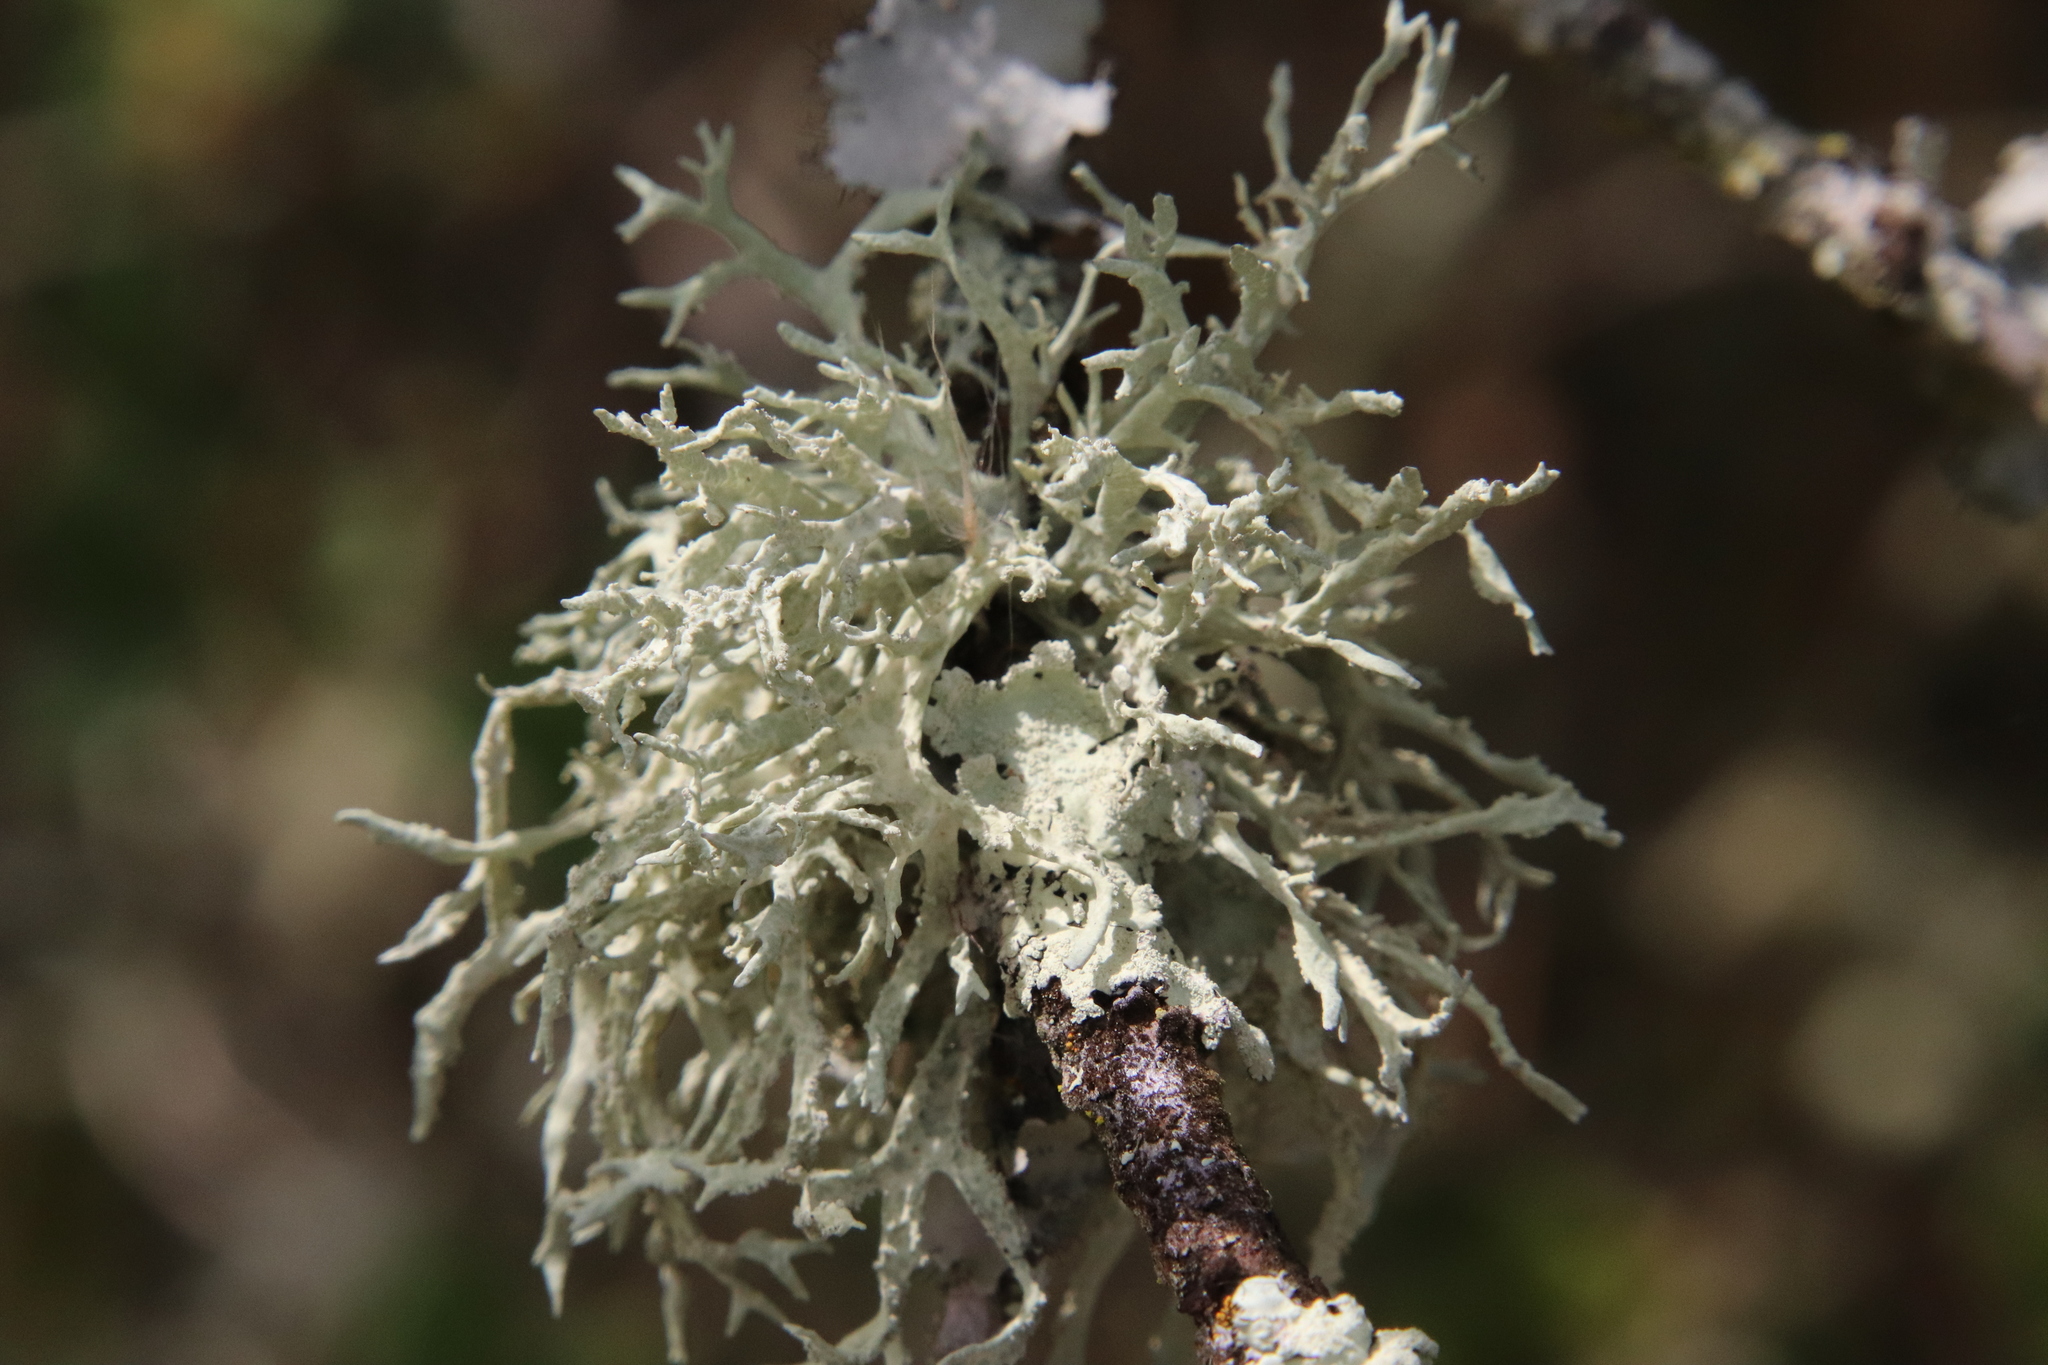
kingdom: Fungi
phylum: Ascomycota
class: Lecanoromycetes
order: Lecanorales
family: Parmeliaceae
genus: Evernia
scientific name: Evernia prunastri
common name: Oak moss
